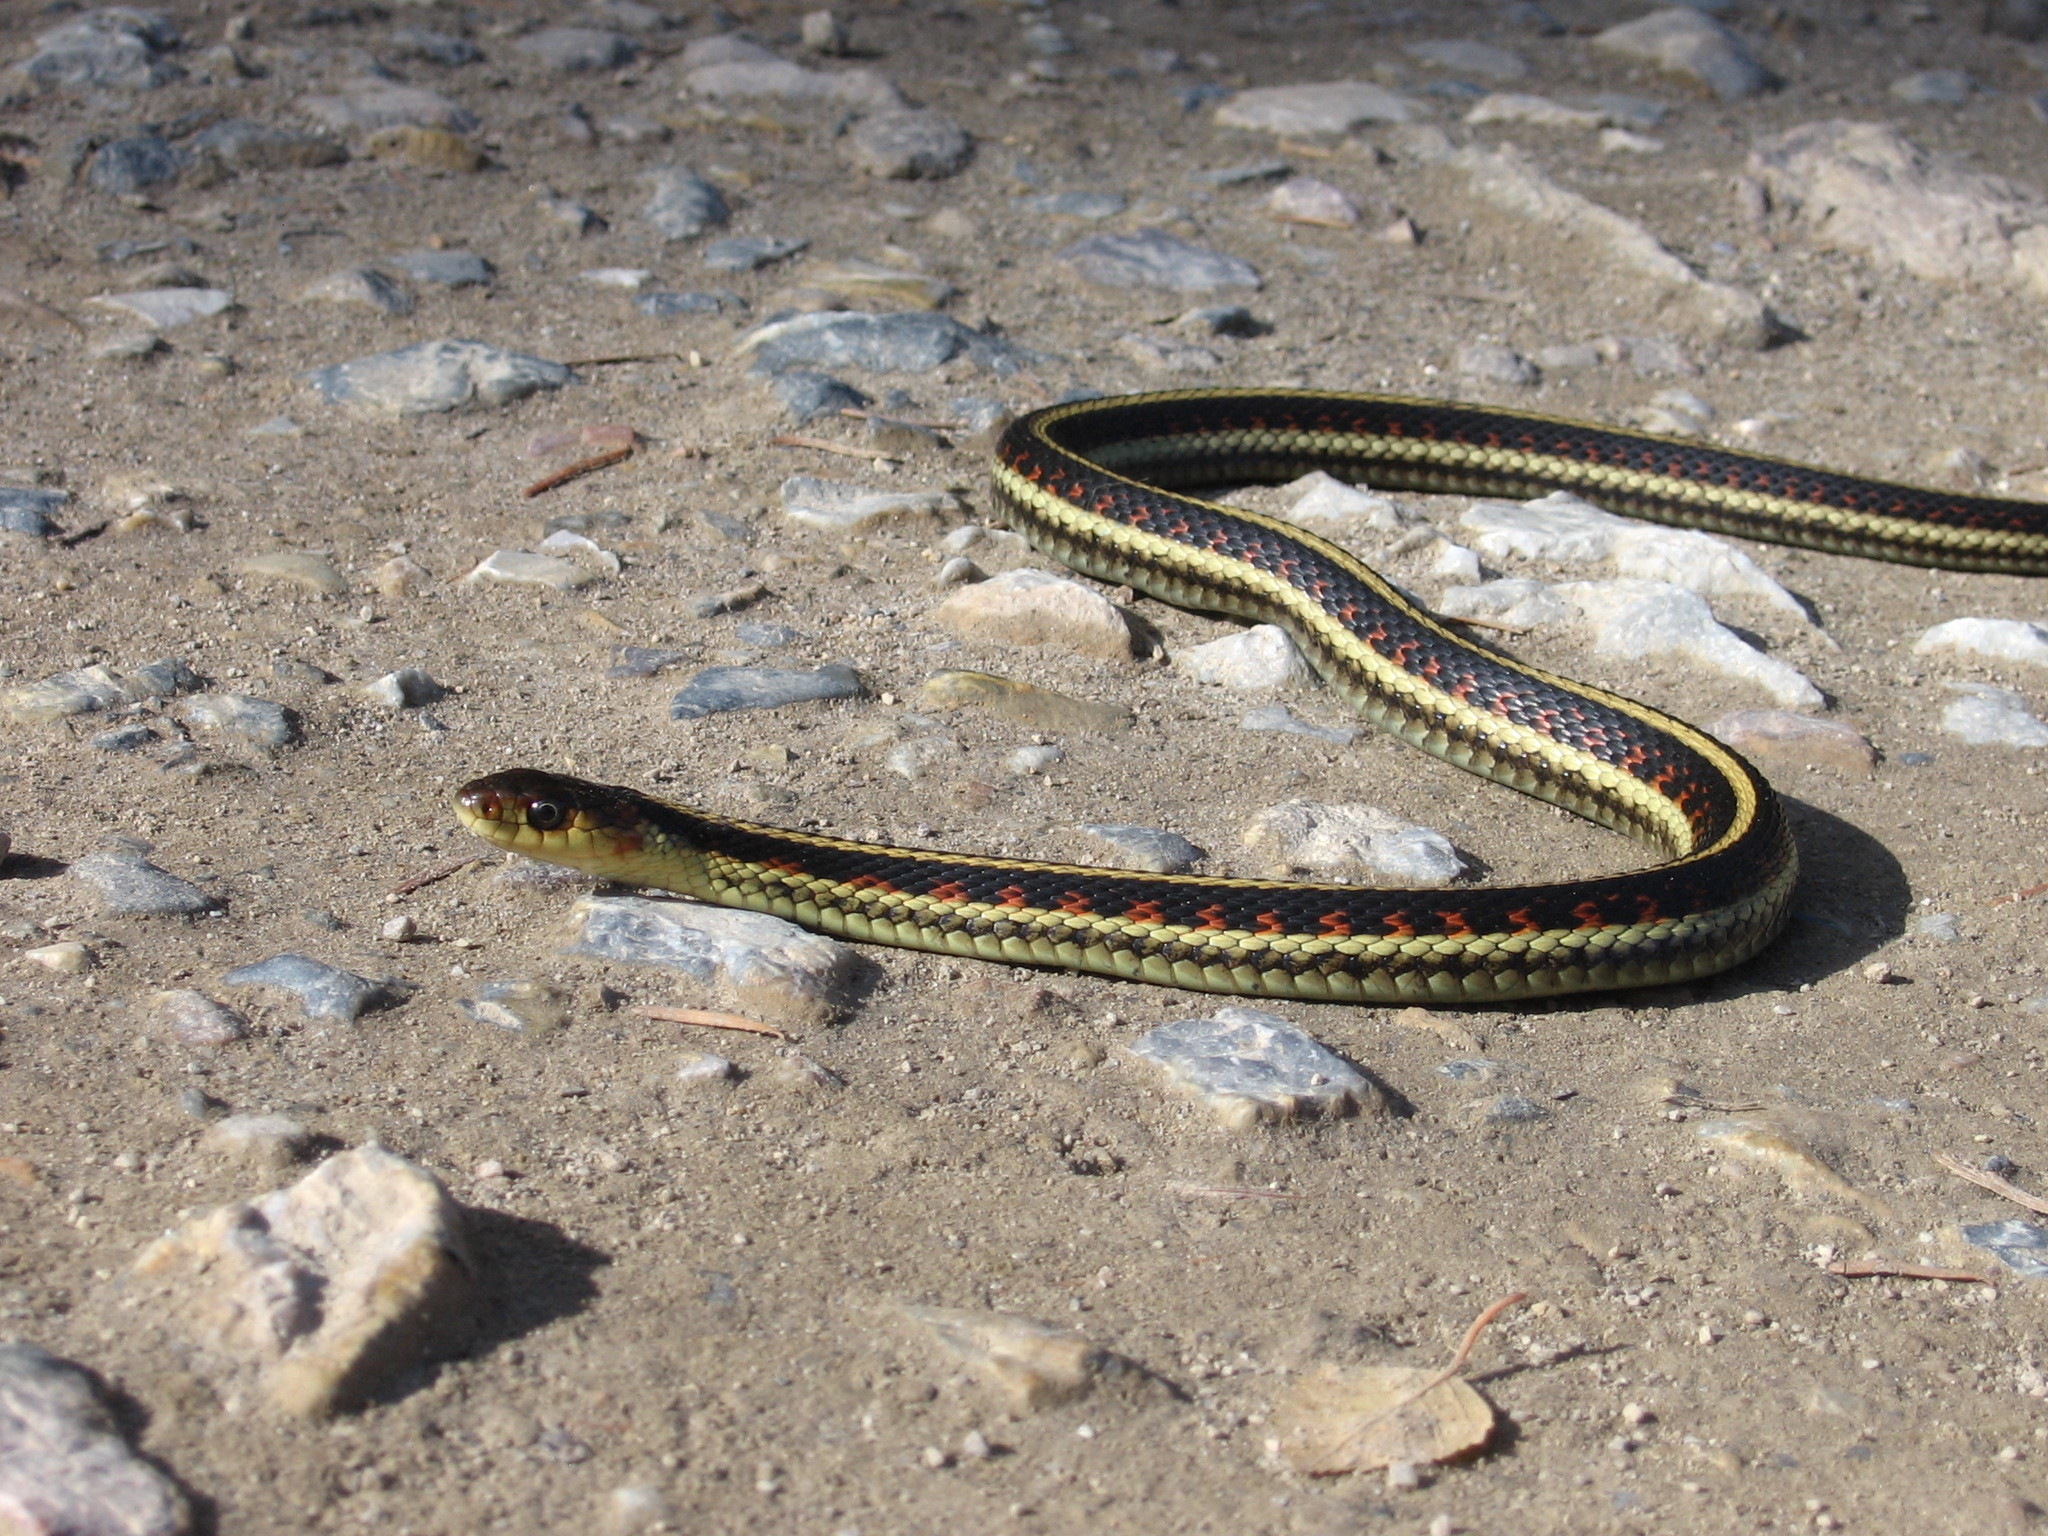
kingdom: Animalia
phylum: Chordata
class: Squamata
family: Colubridae
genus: Thamnophis
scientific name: Thamnophis sirtalis
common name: Common garter snake
